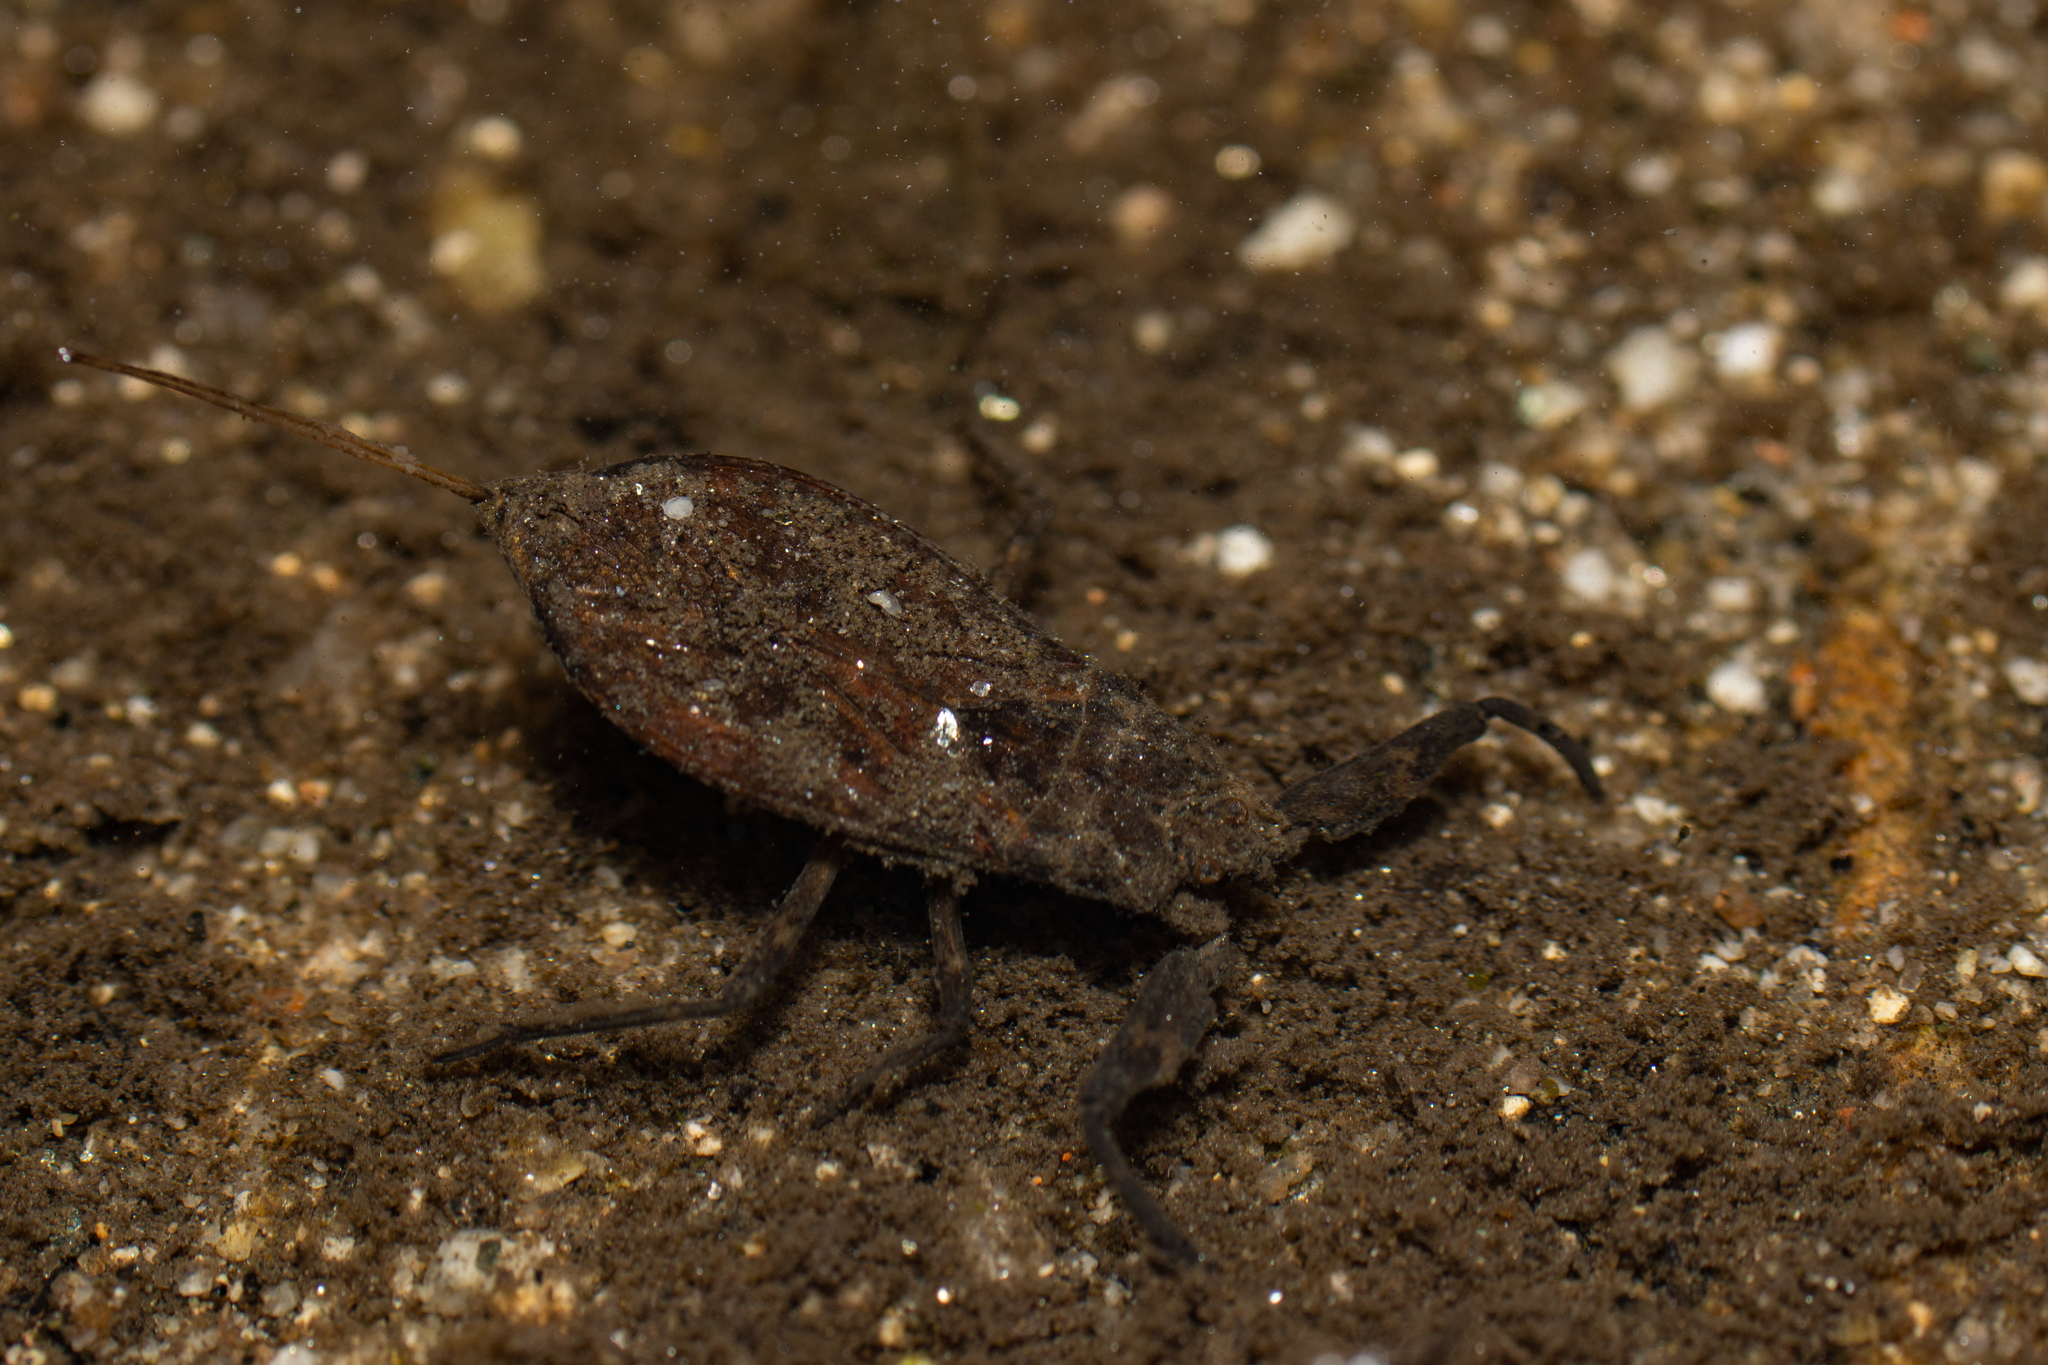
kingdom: Animalia
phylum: Arthropoda
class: Insecta
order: Hemiptera
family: Nepidae
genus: Nepa
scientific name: Nepa cinerea
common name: Water scorpion
